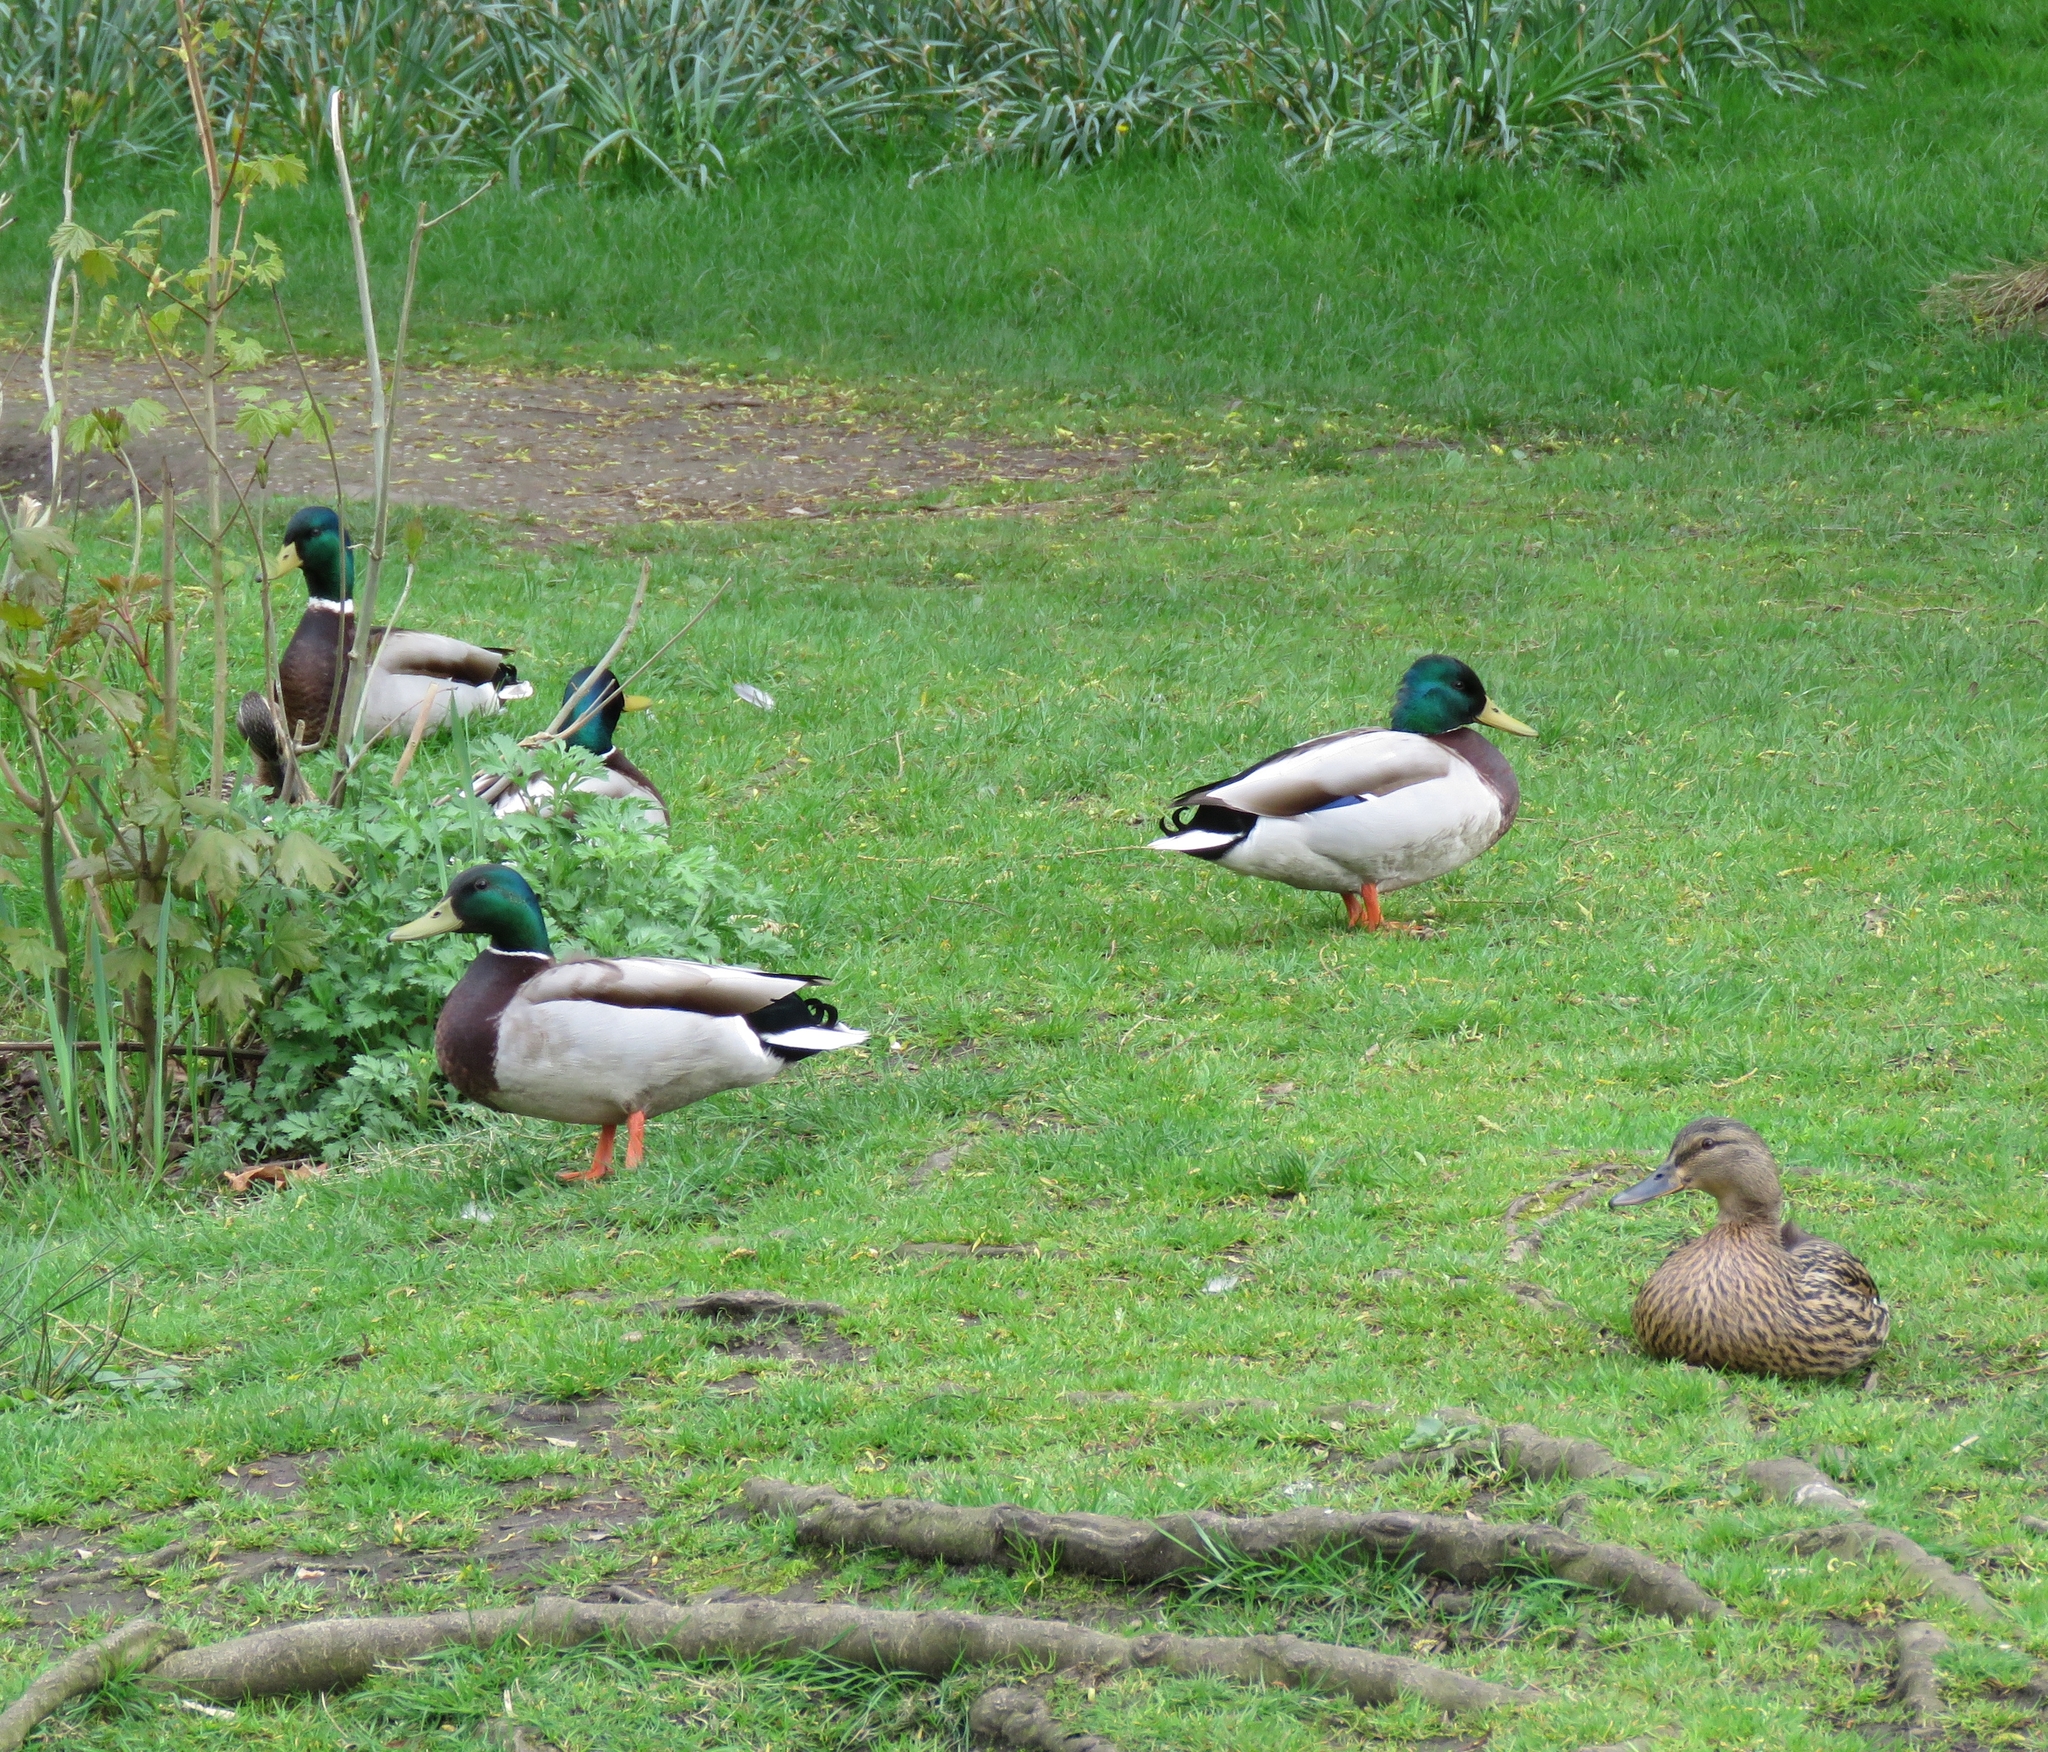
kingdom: Animalia
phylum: Chordata
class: Aves
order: Anseriformes
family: Anatidae
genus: Anas
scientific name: Anas platyrhynchos
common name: Mallard
